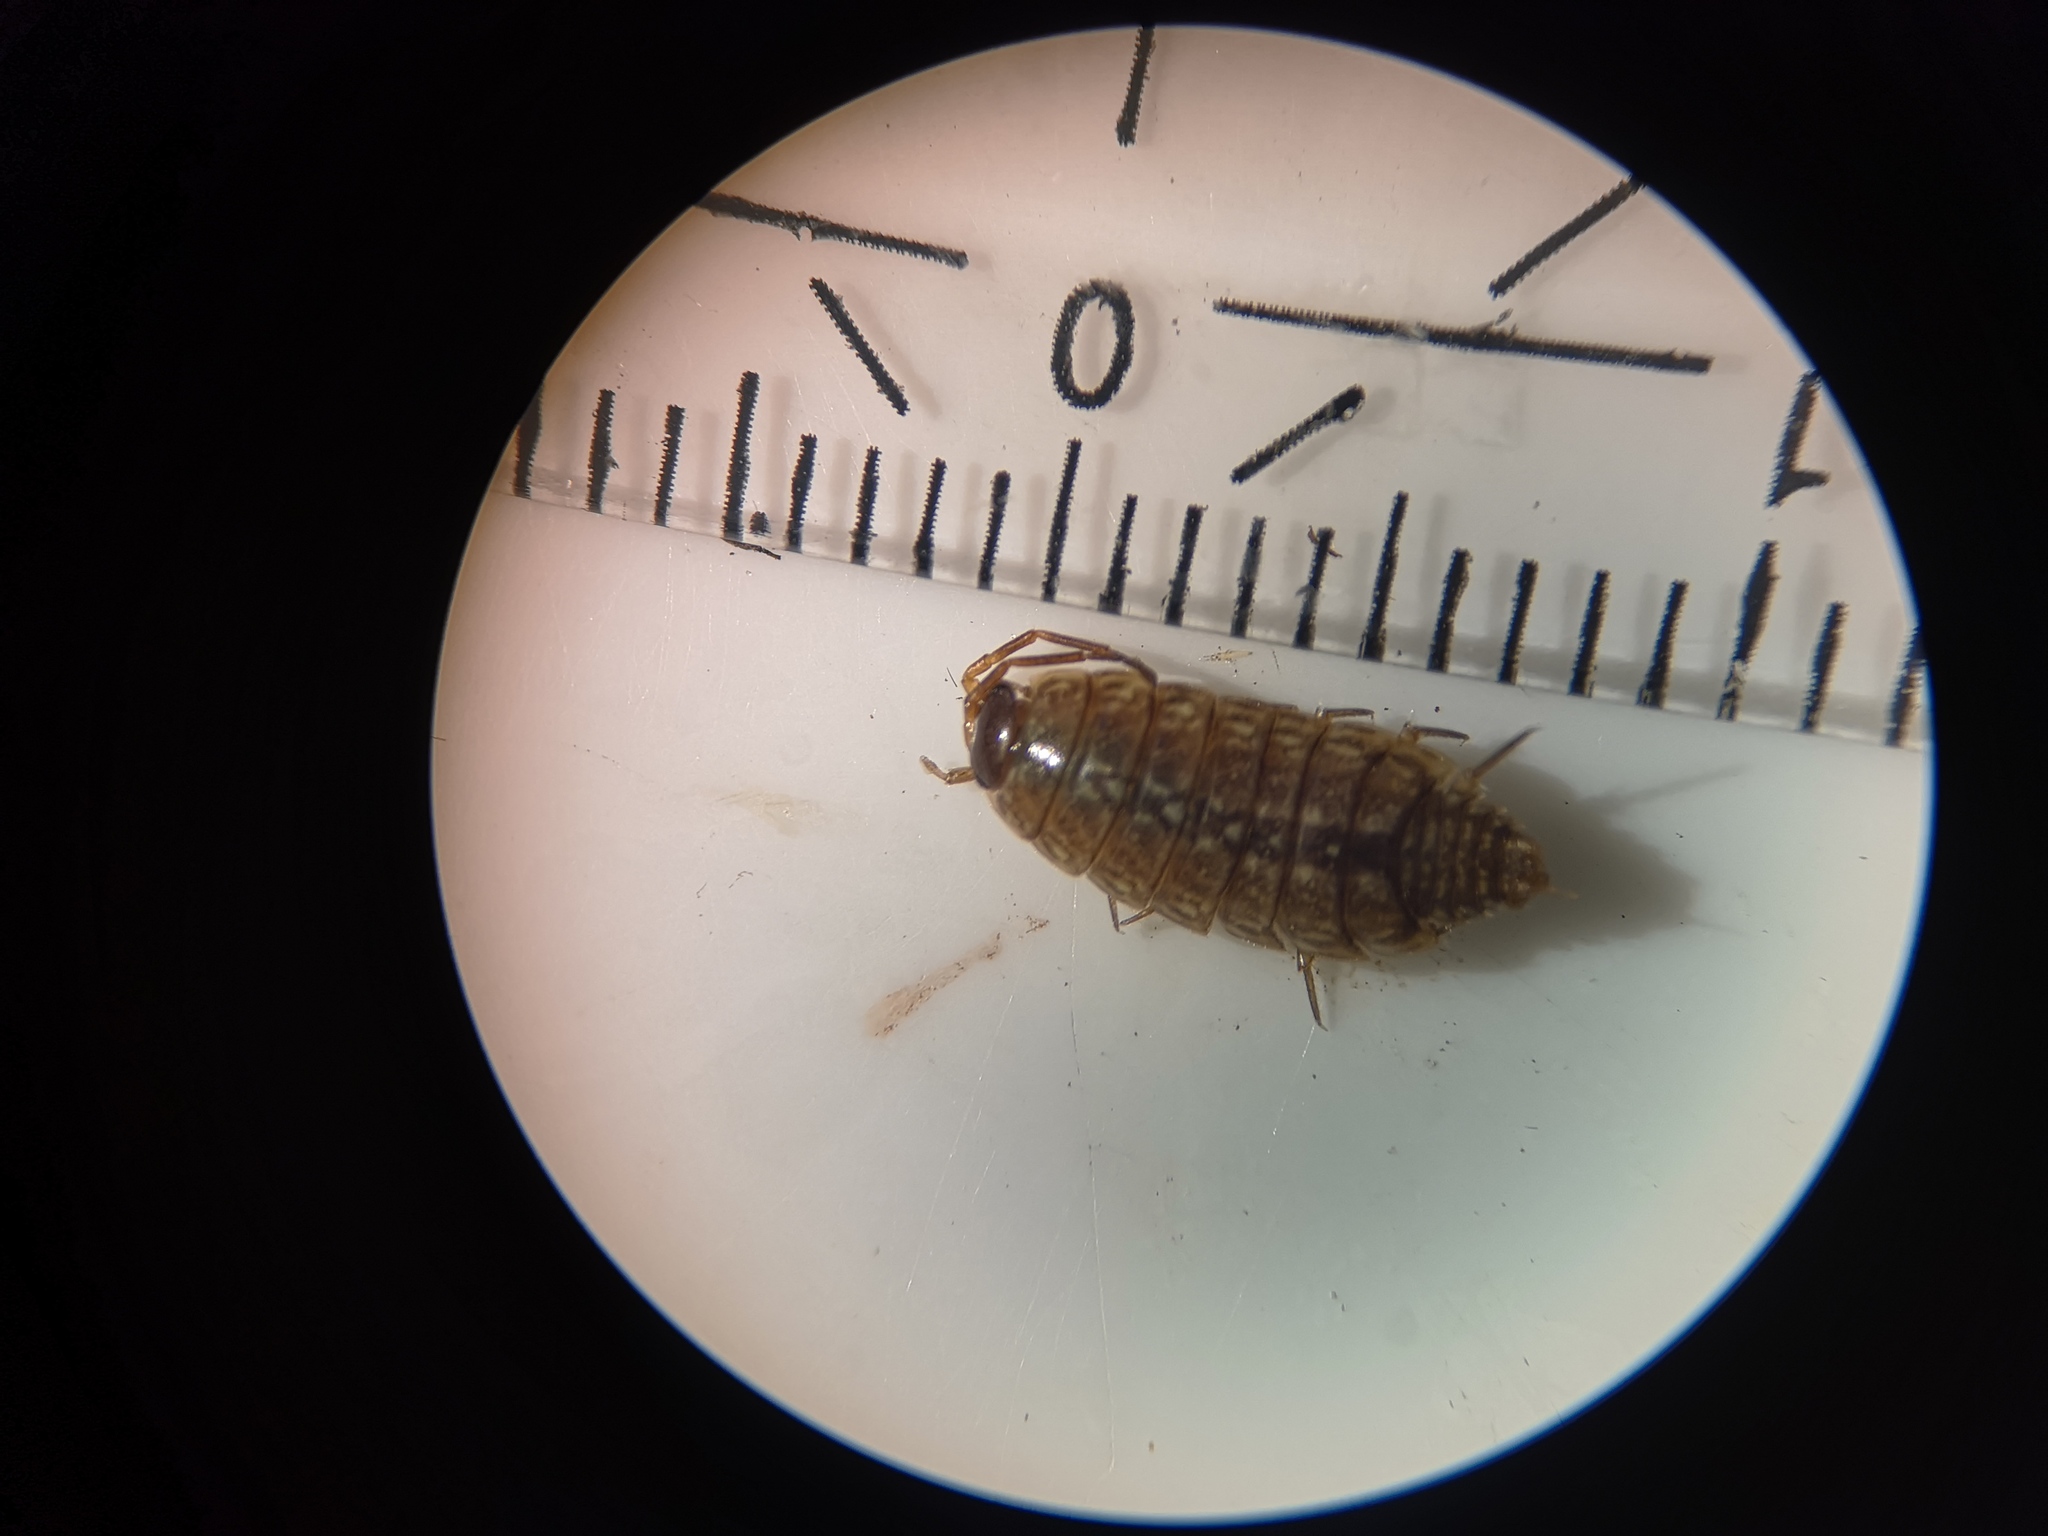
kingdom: Animalia
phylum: Arthropoda
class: Malacostraca
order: Isopoda
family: Philosciidae
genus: Philoscia
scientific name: Philoscia muscorum
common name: Common striped woodlouse
